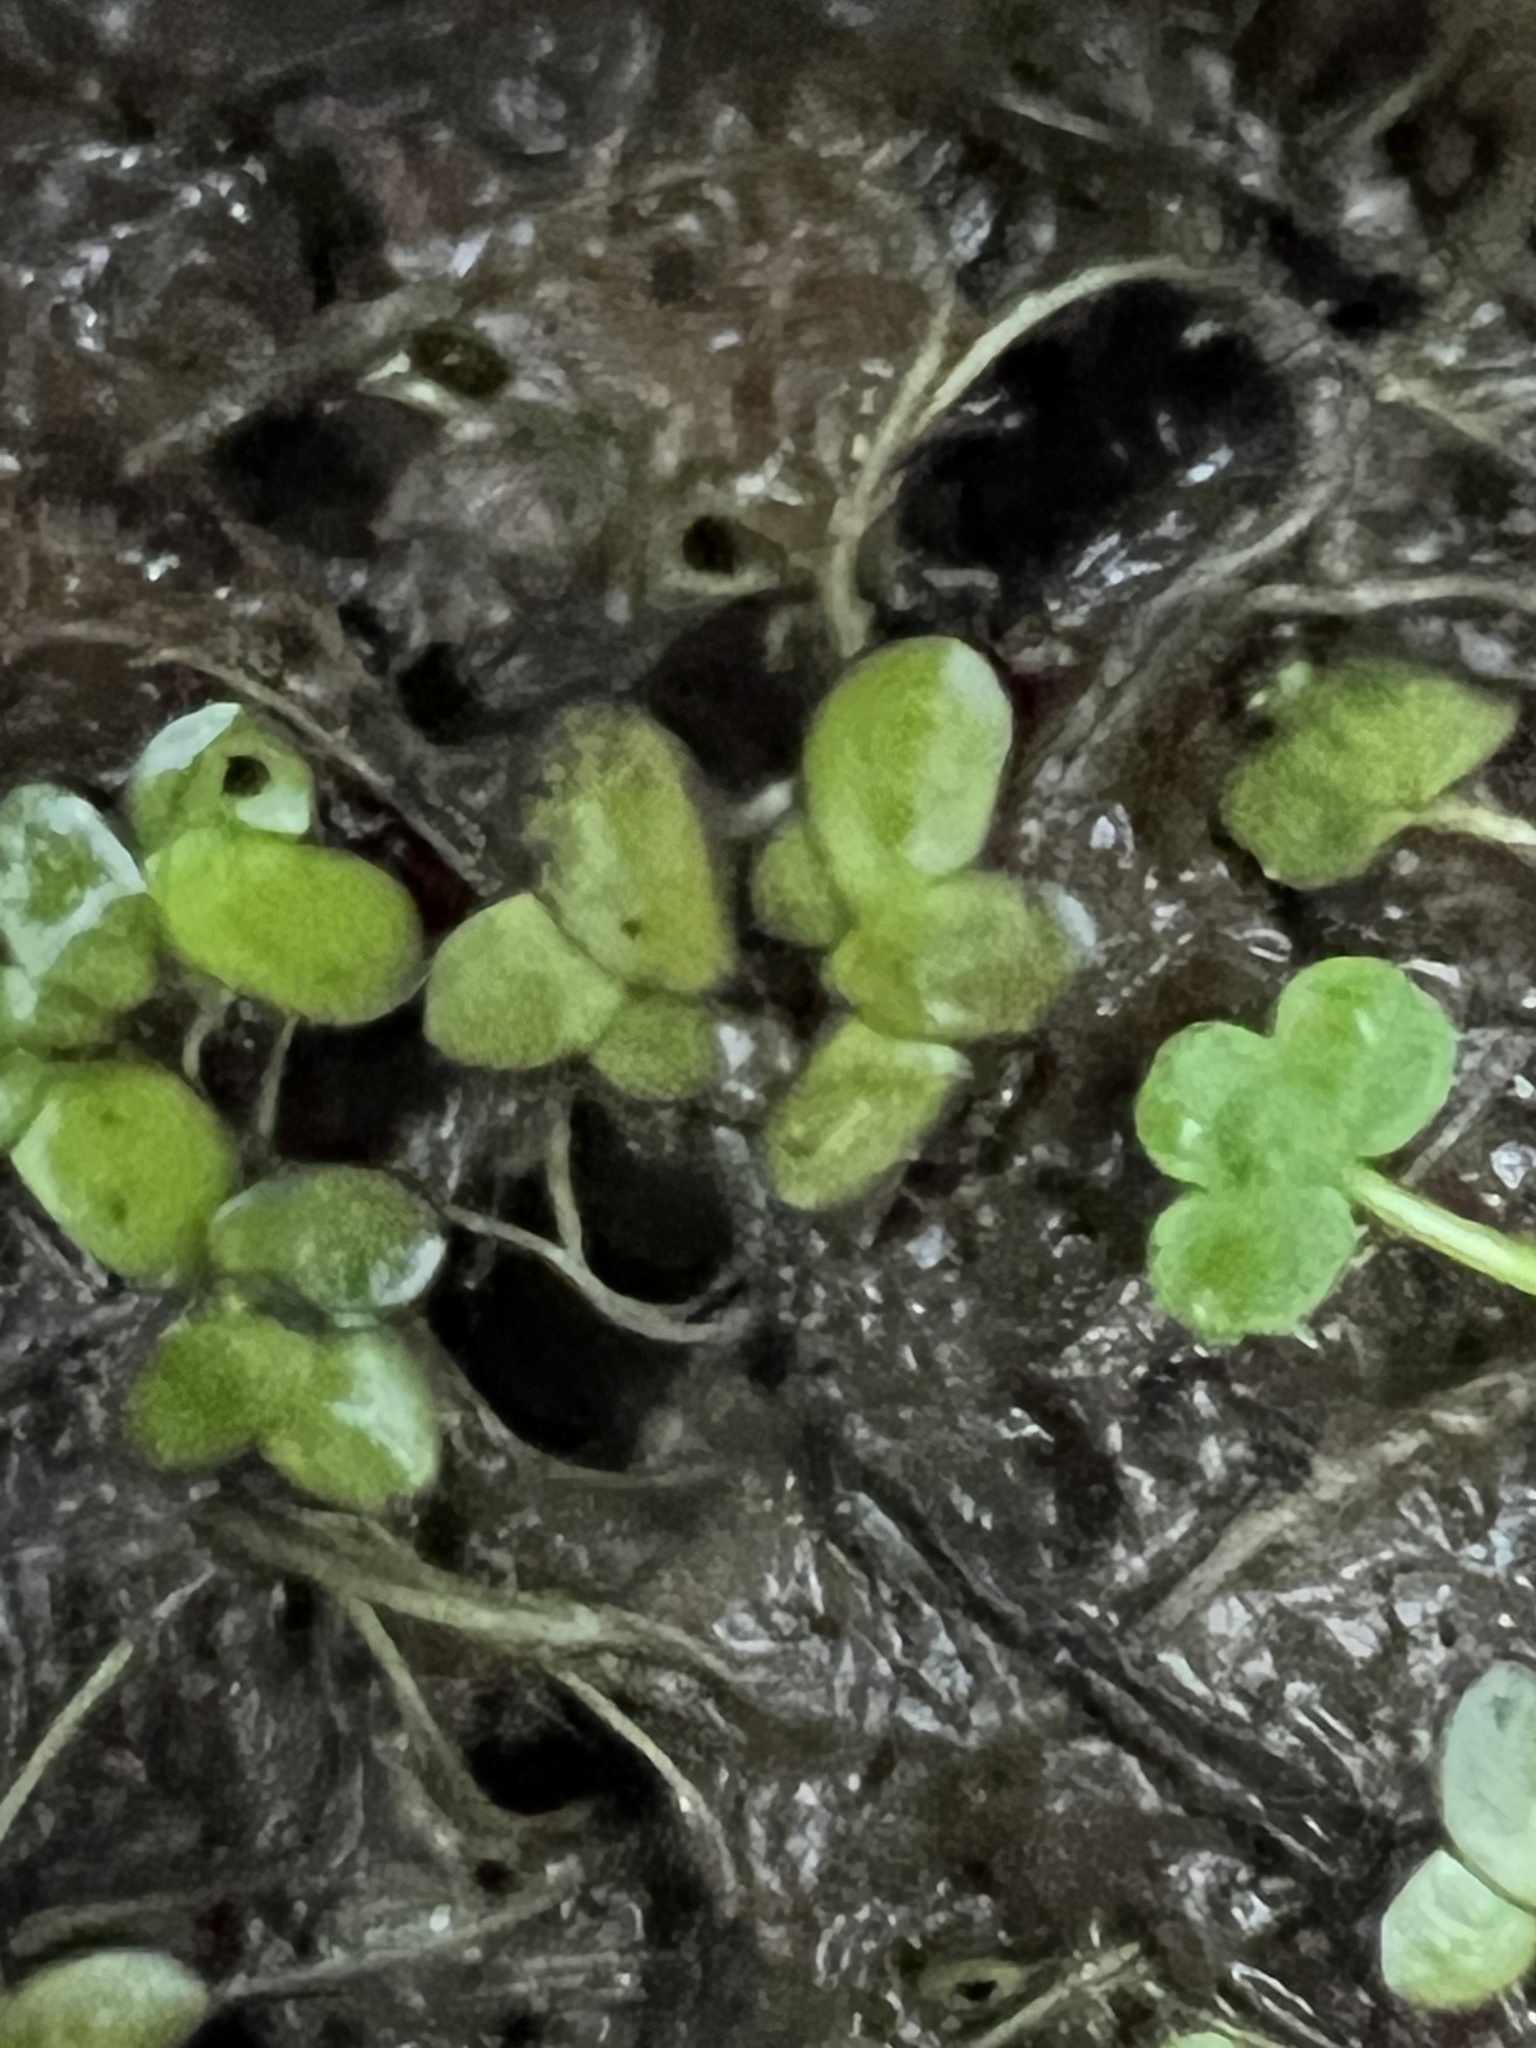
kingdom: Plantae
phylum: Tracheophyta
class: Liliopsida
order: Alismatales
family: Araceae
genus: Lemna
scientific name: Lemna minor
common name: Common duckweed
